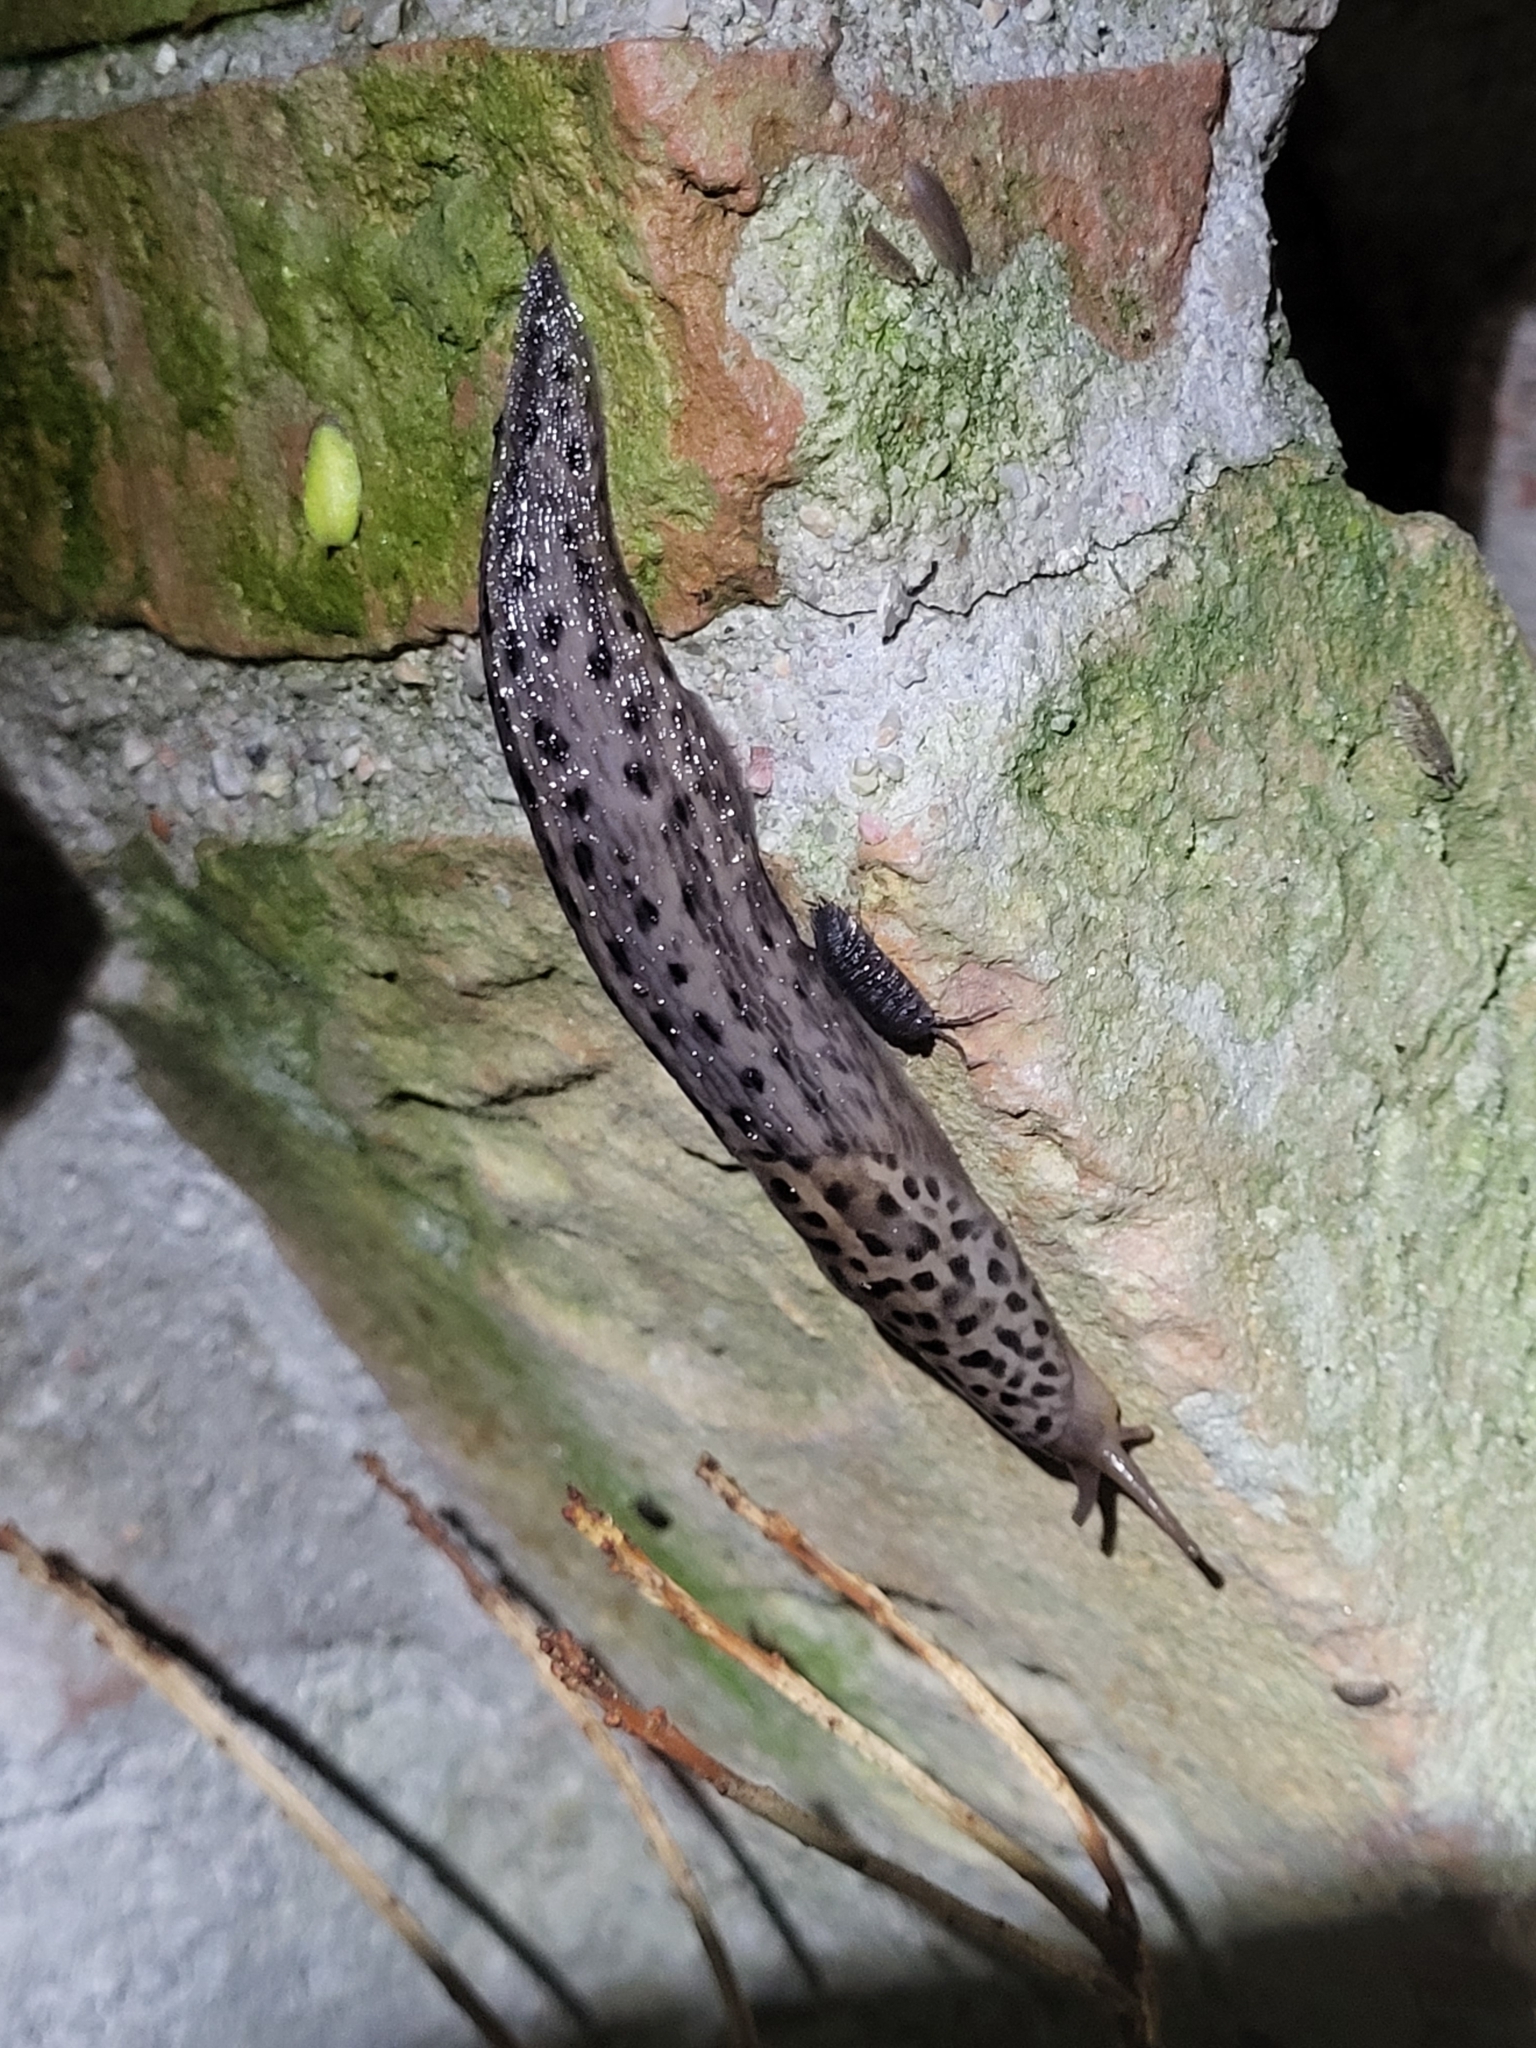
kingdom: Animalia
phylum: Mollusca
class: Gastropoda
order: Stylommatophora
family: Limacidae
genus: Limax
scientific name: Limax maximus
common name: Great grey slug
